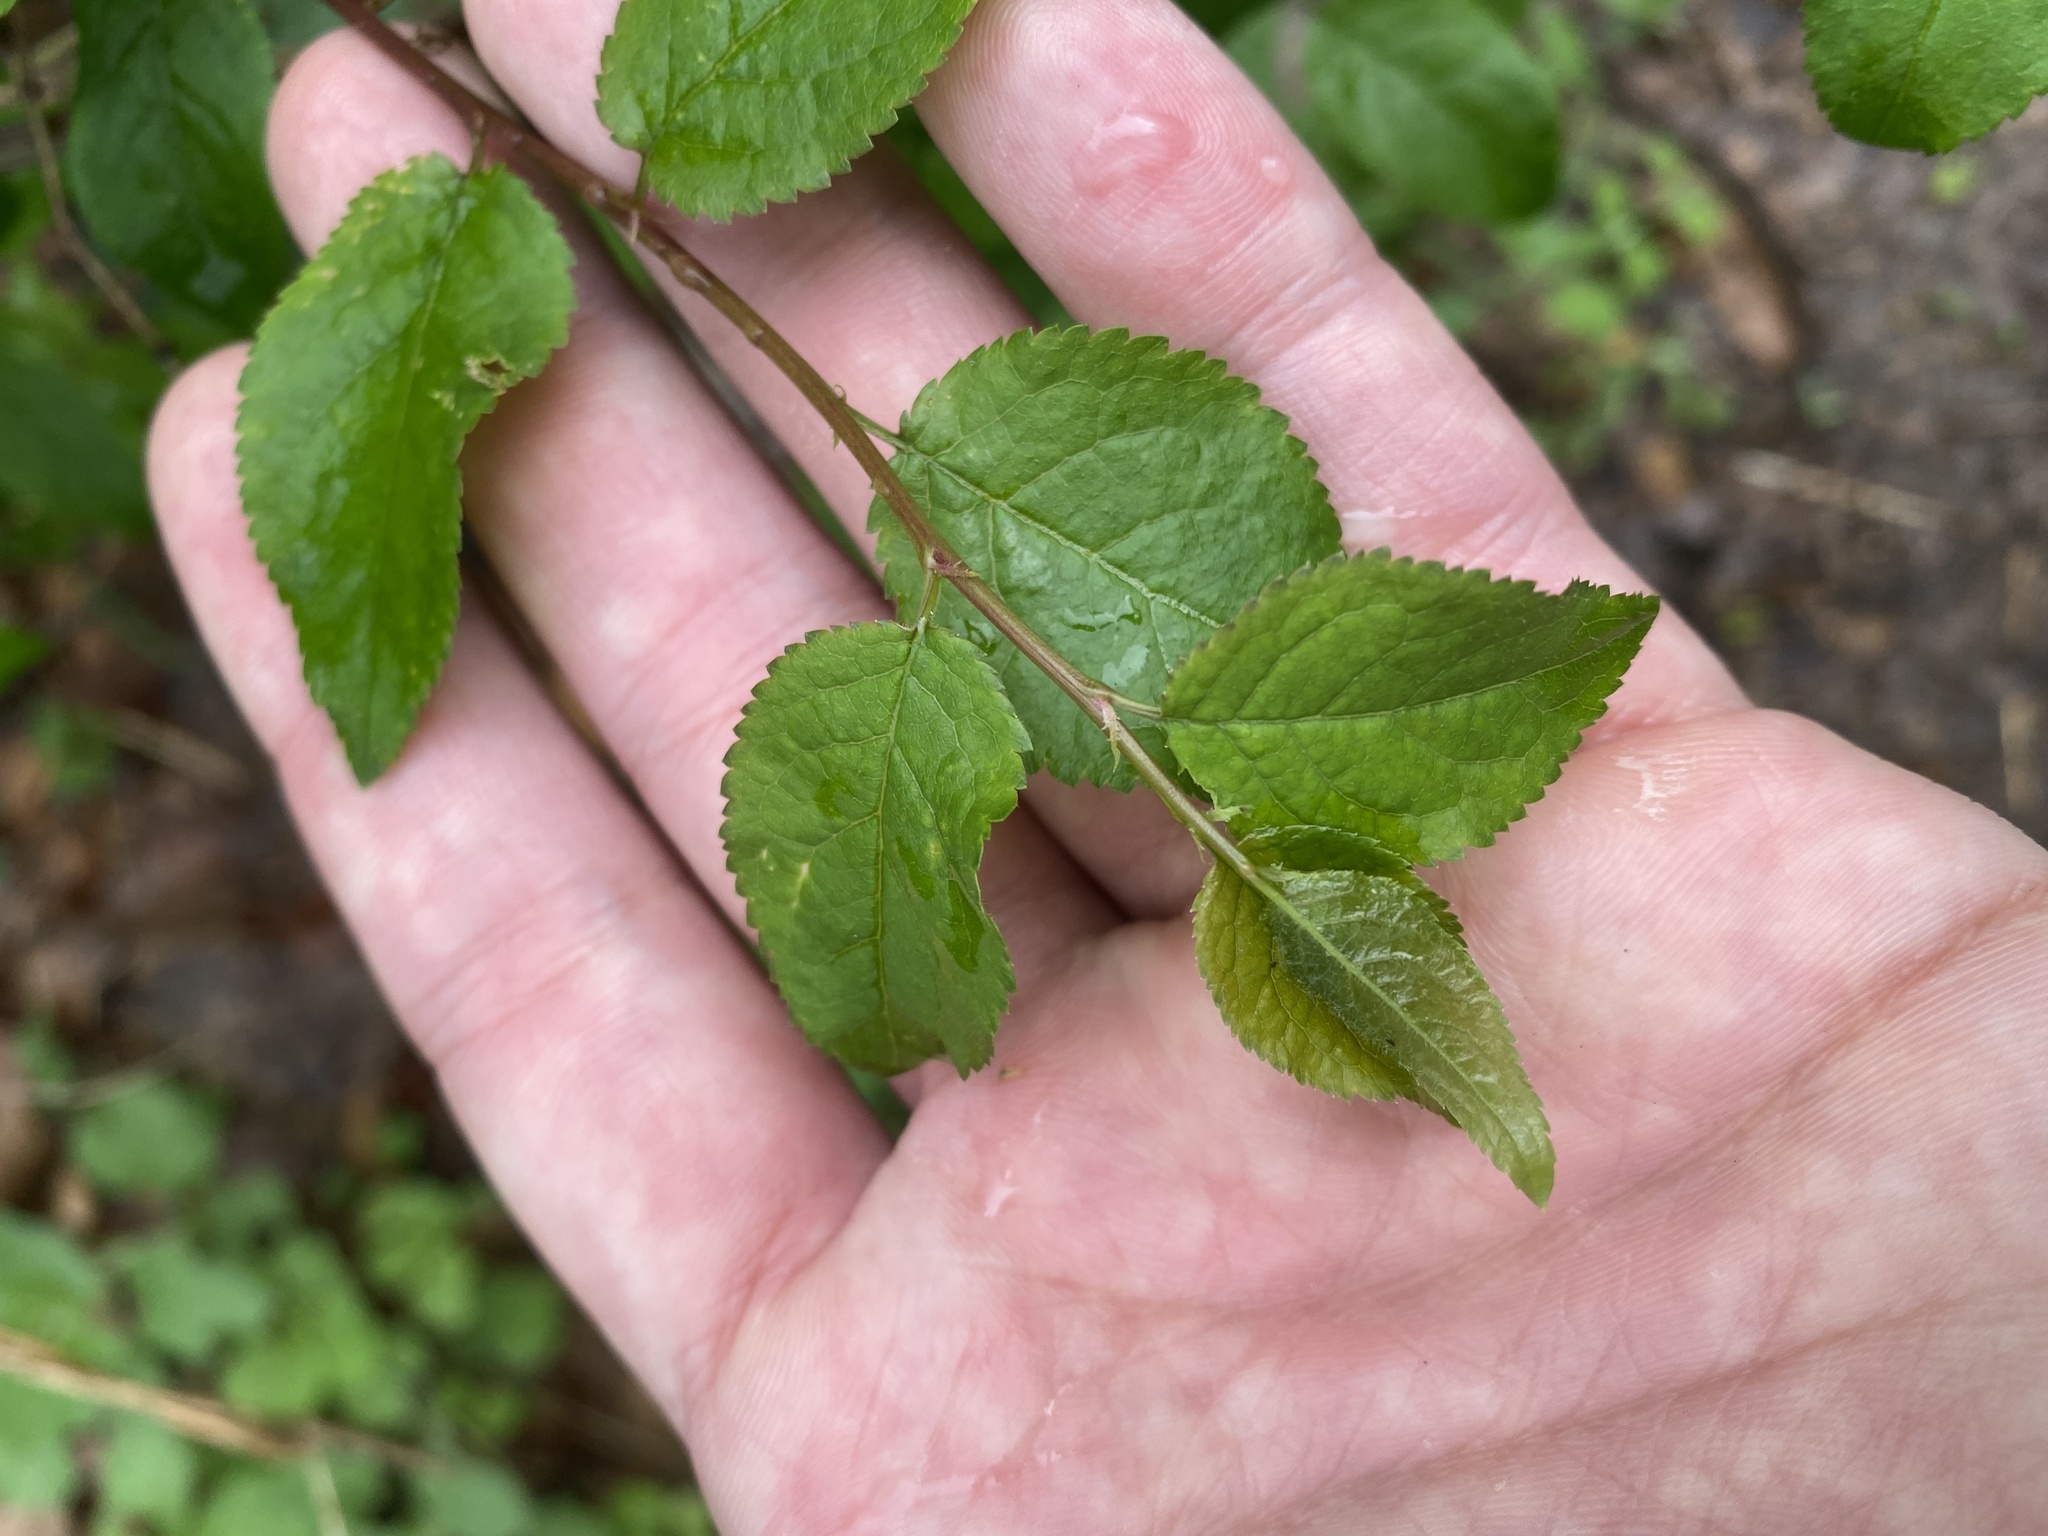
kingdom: Plantae
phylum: Tracheophyta
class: Magnoliopsida
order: Rosales
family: Rosaceae
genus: Prunus
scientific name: Prunus cerasifera
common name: Cherry plum
